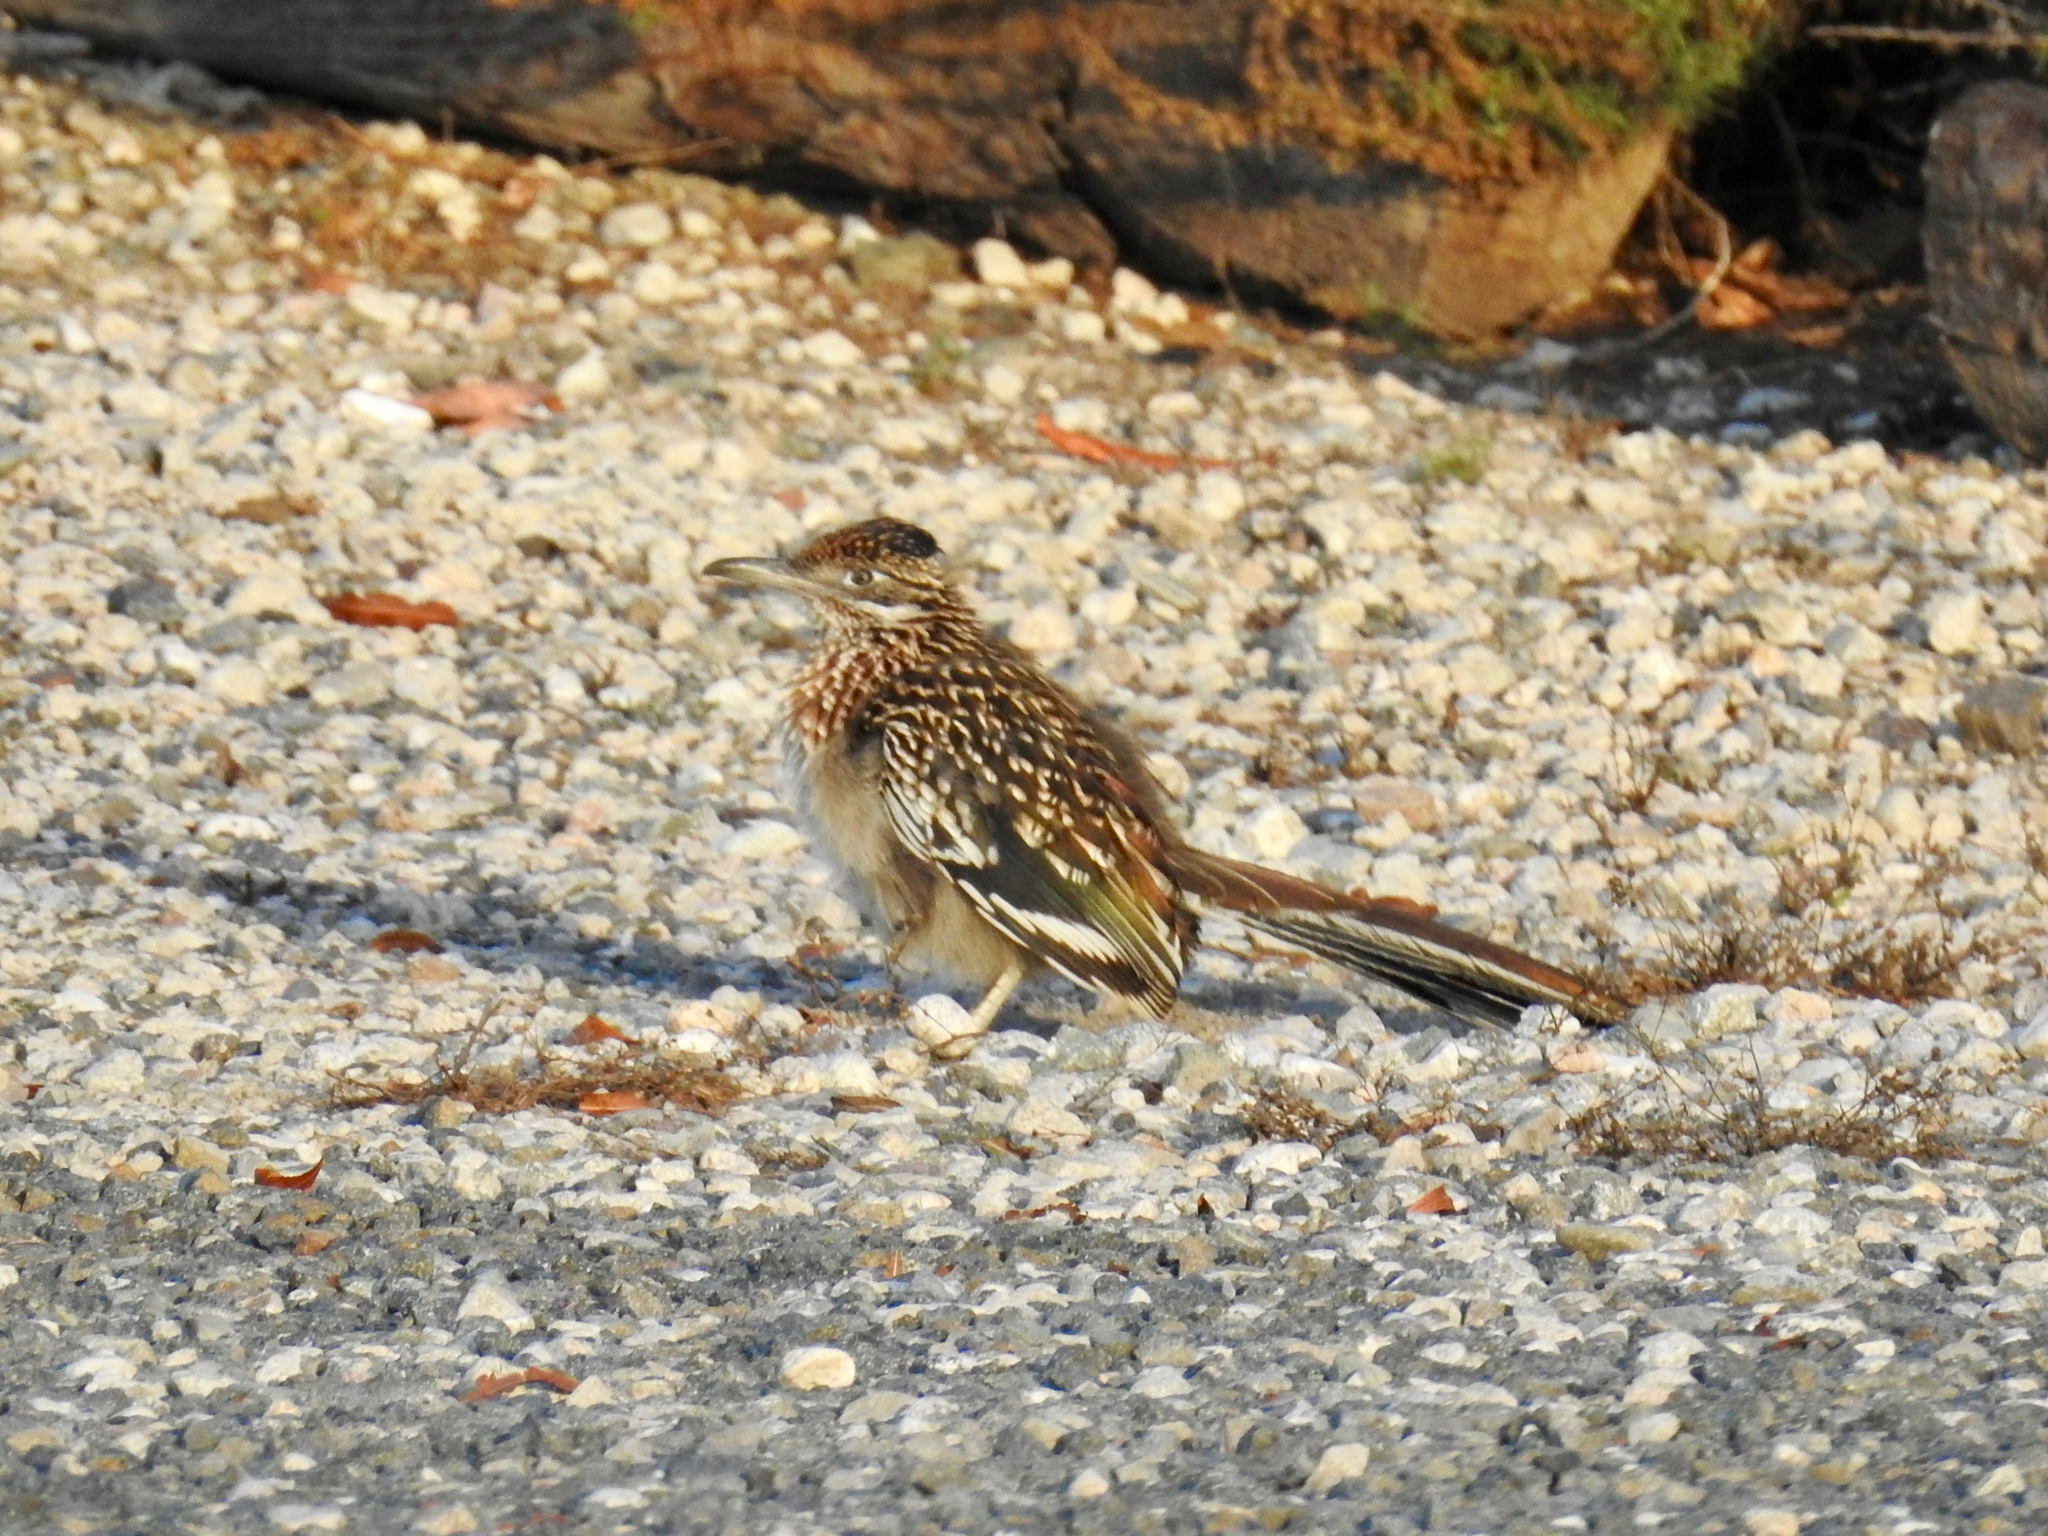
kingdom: Animalia
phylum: Chordata
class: Aves
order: Cuculiformes
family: Cuculidae
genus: Geococcyx
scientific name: Geococcyx californianus
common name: Greater roadrunner
